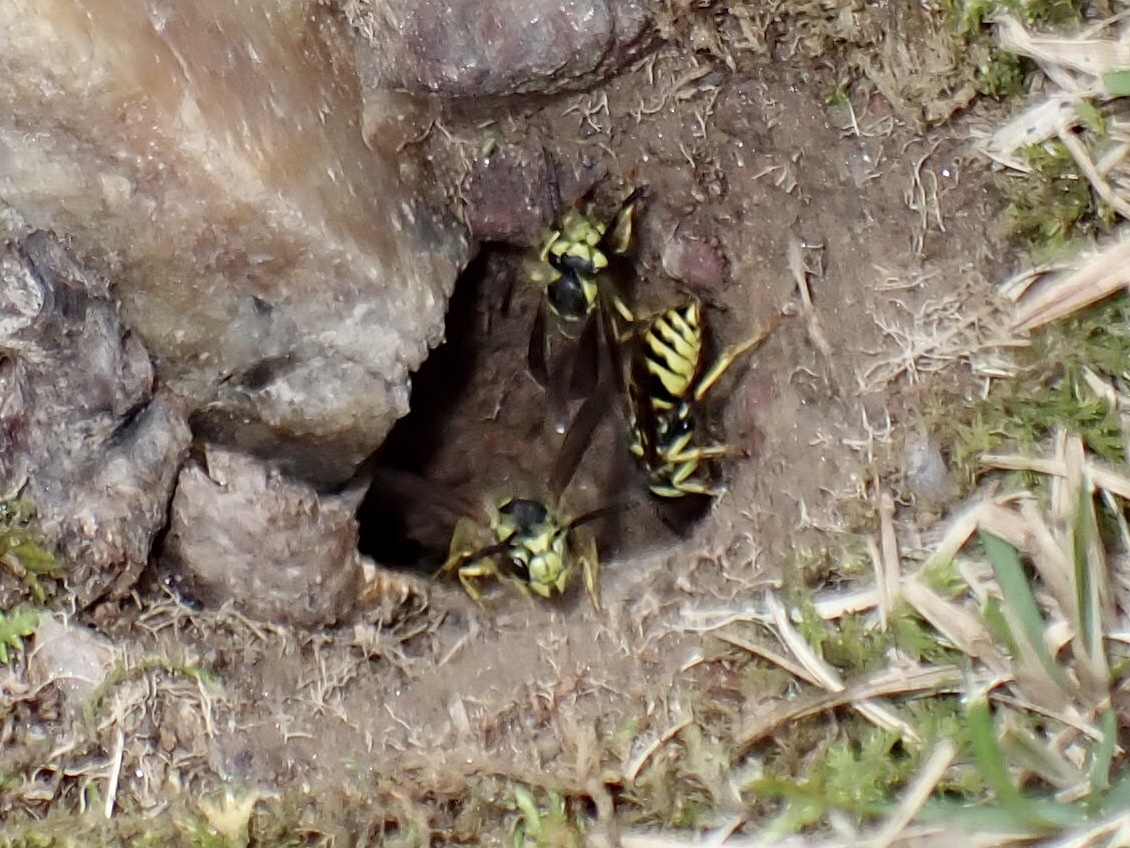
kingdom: Animalia
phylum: Arthropoda
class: Insecta
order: Hymenoptera
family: Vespidae
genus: Vespula
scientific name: Vespula maculifrons
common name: Eastern yellowjacket
